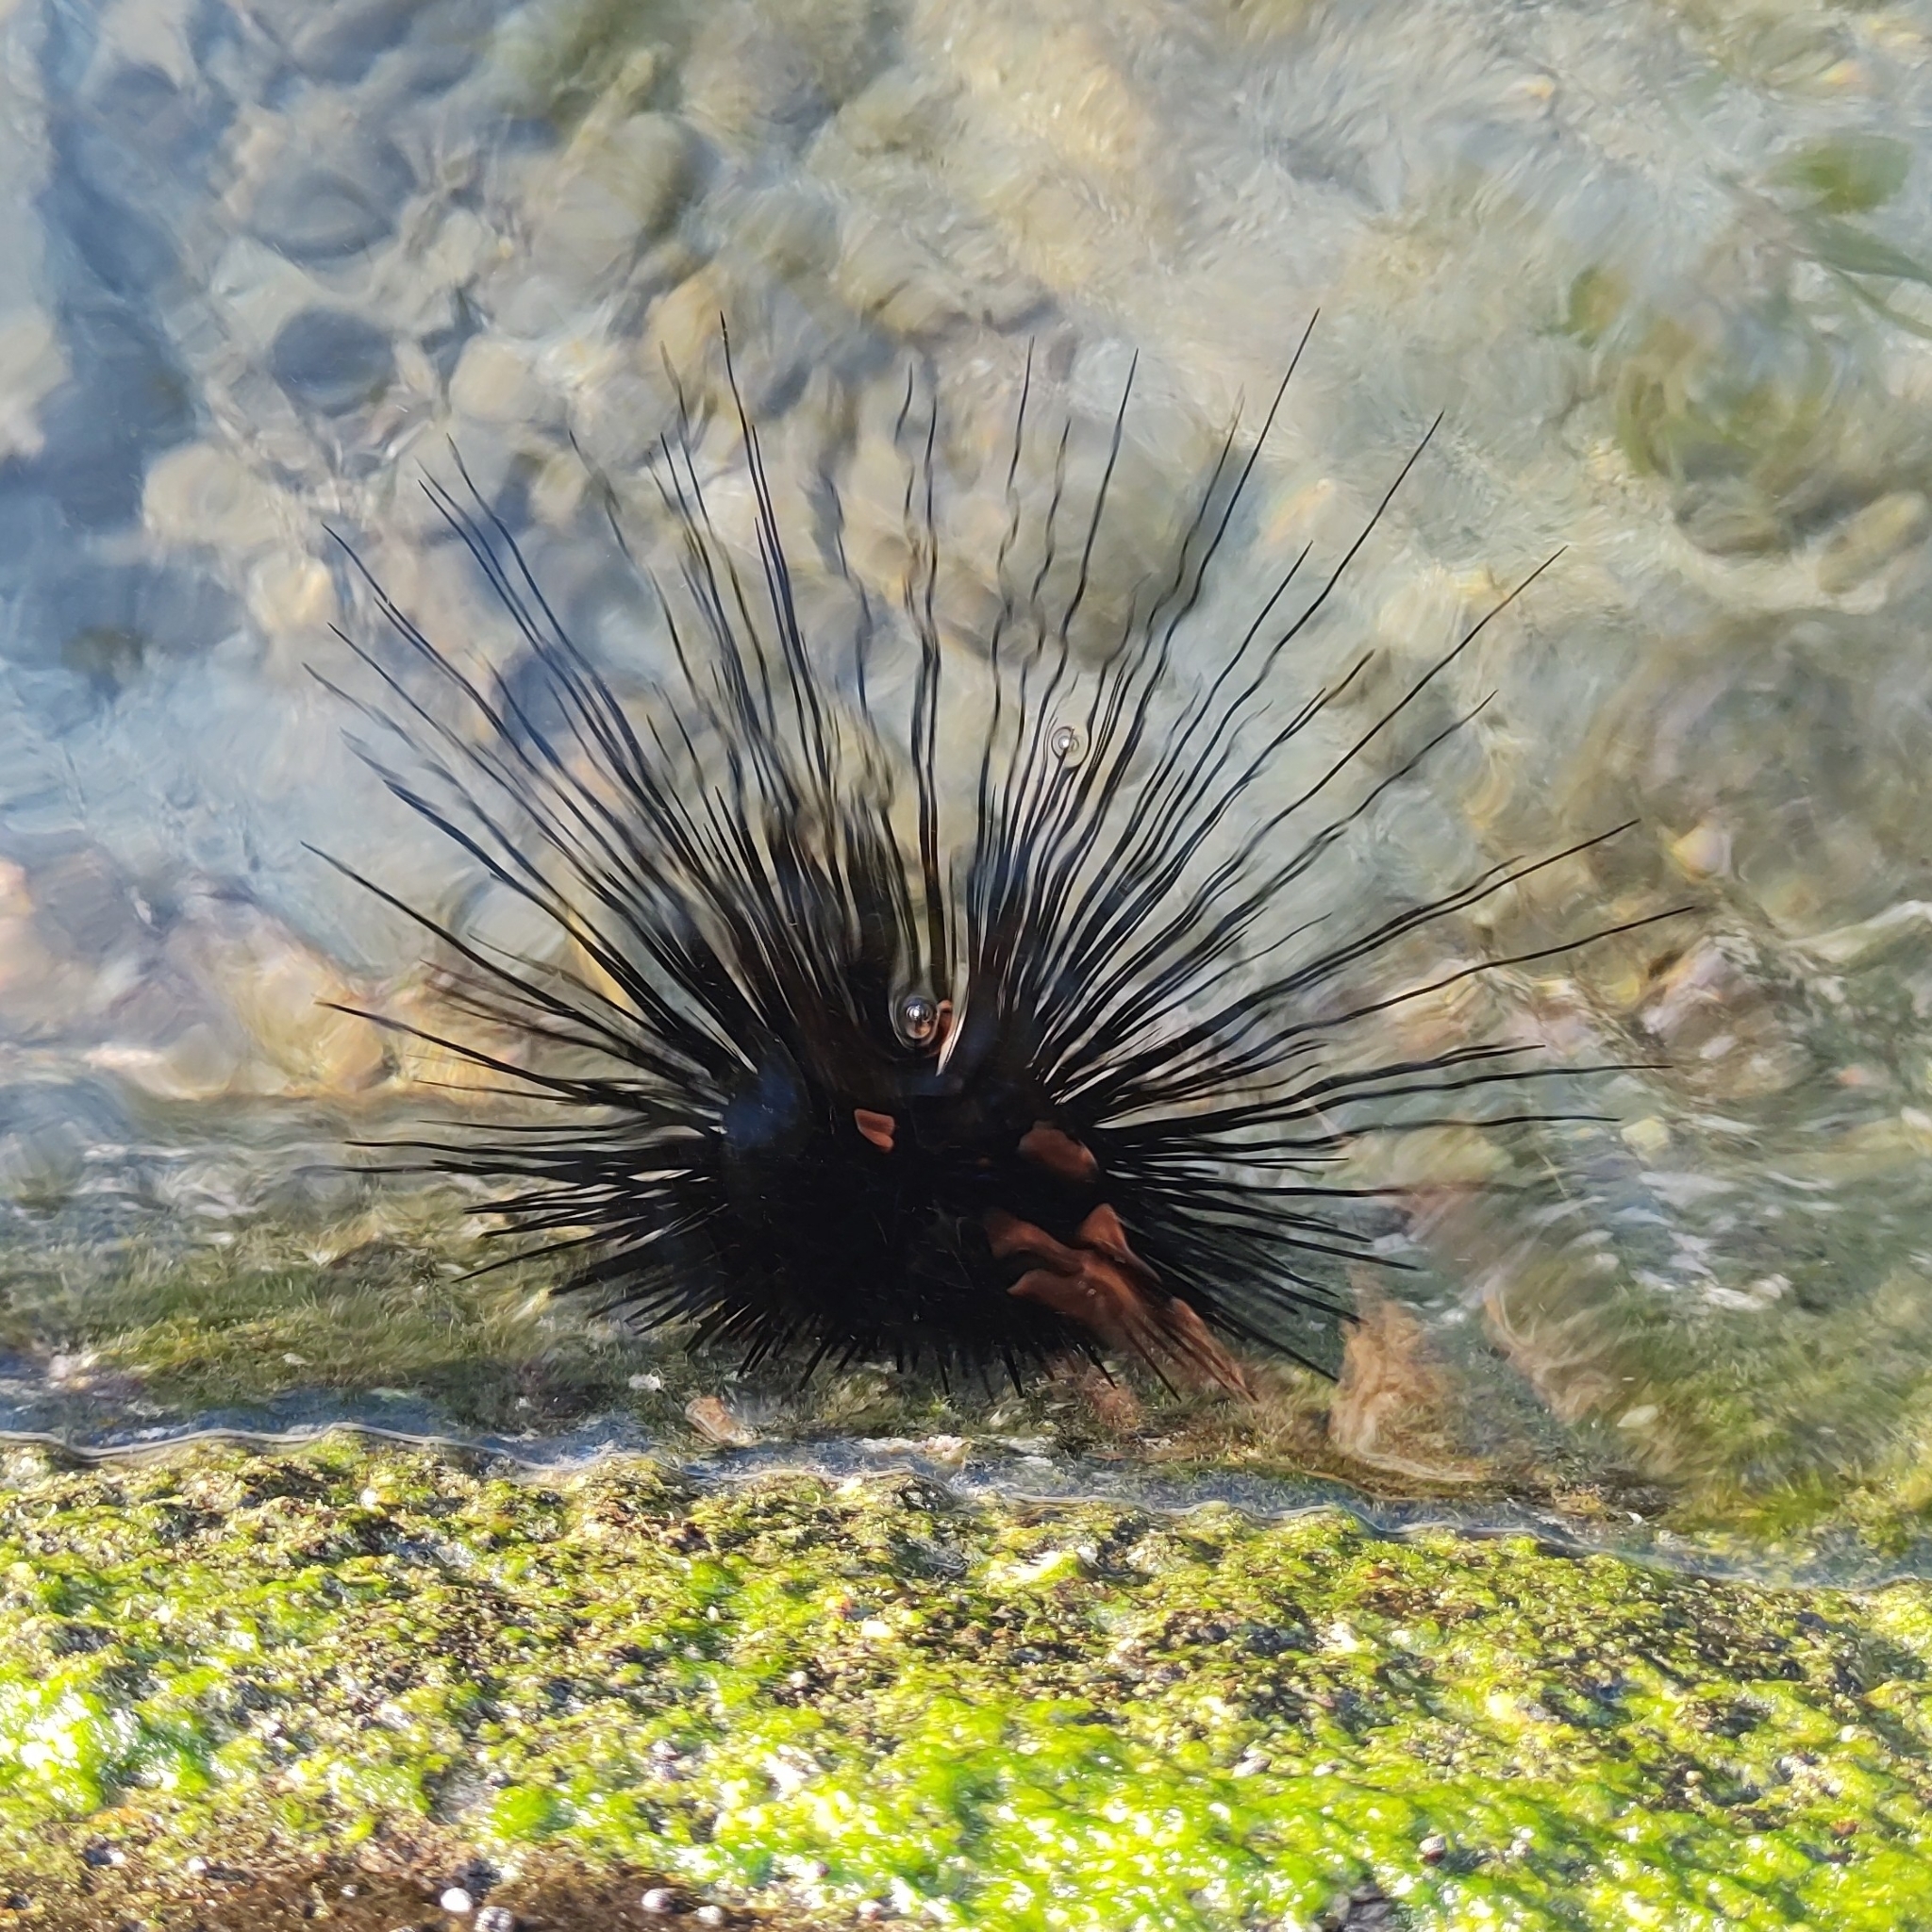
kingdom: Animalia
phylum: Echinodermata
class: Echinoidea
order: Diadematoida
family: Diadematidae
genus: Diadema
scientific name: Diadema antillarum
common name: Spiny urchin
